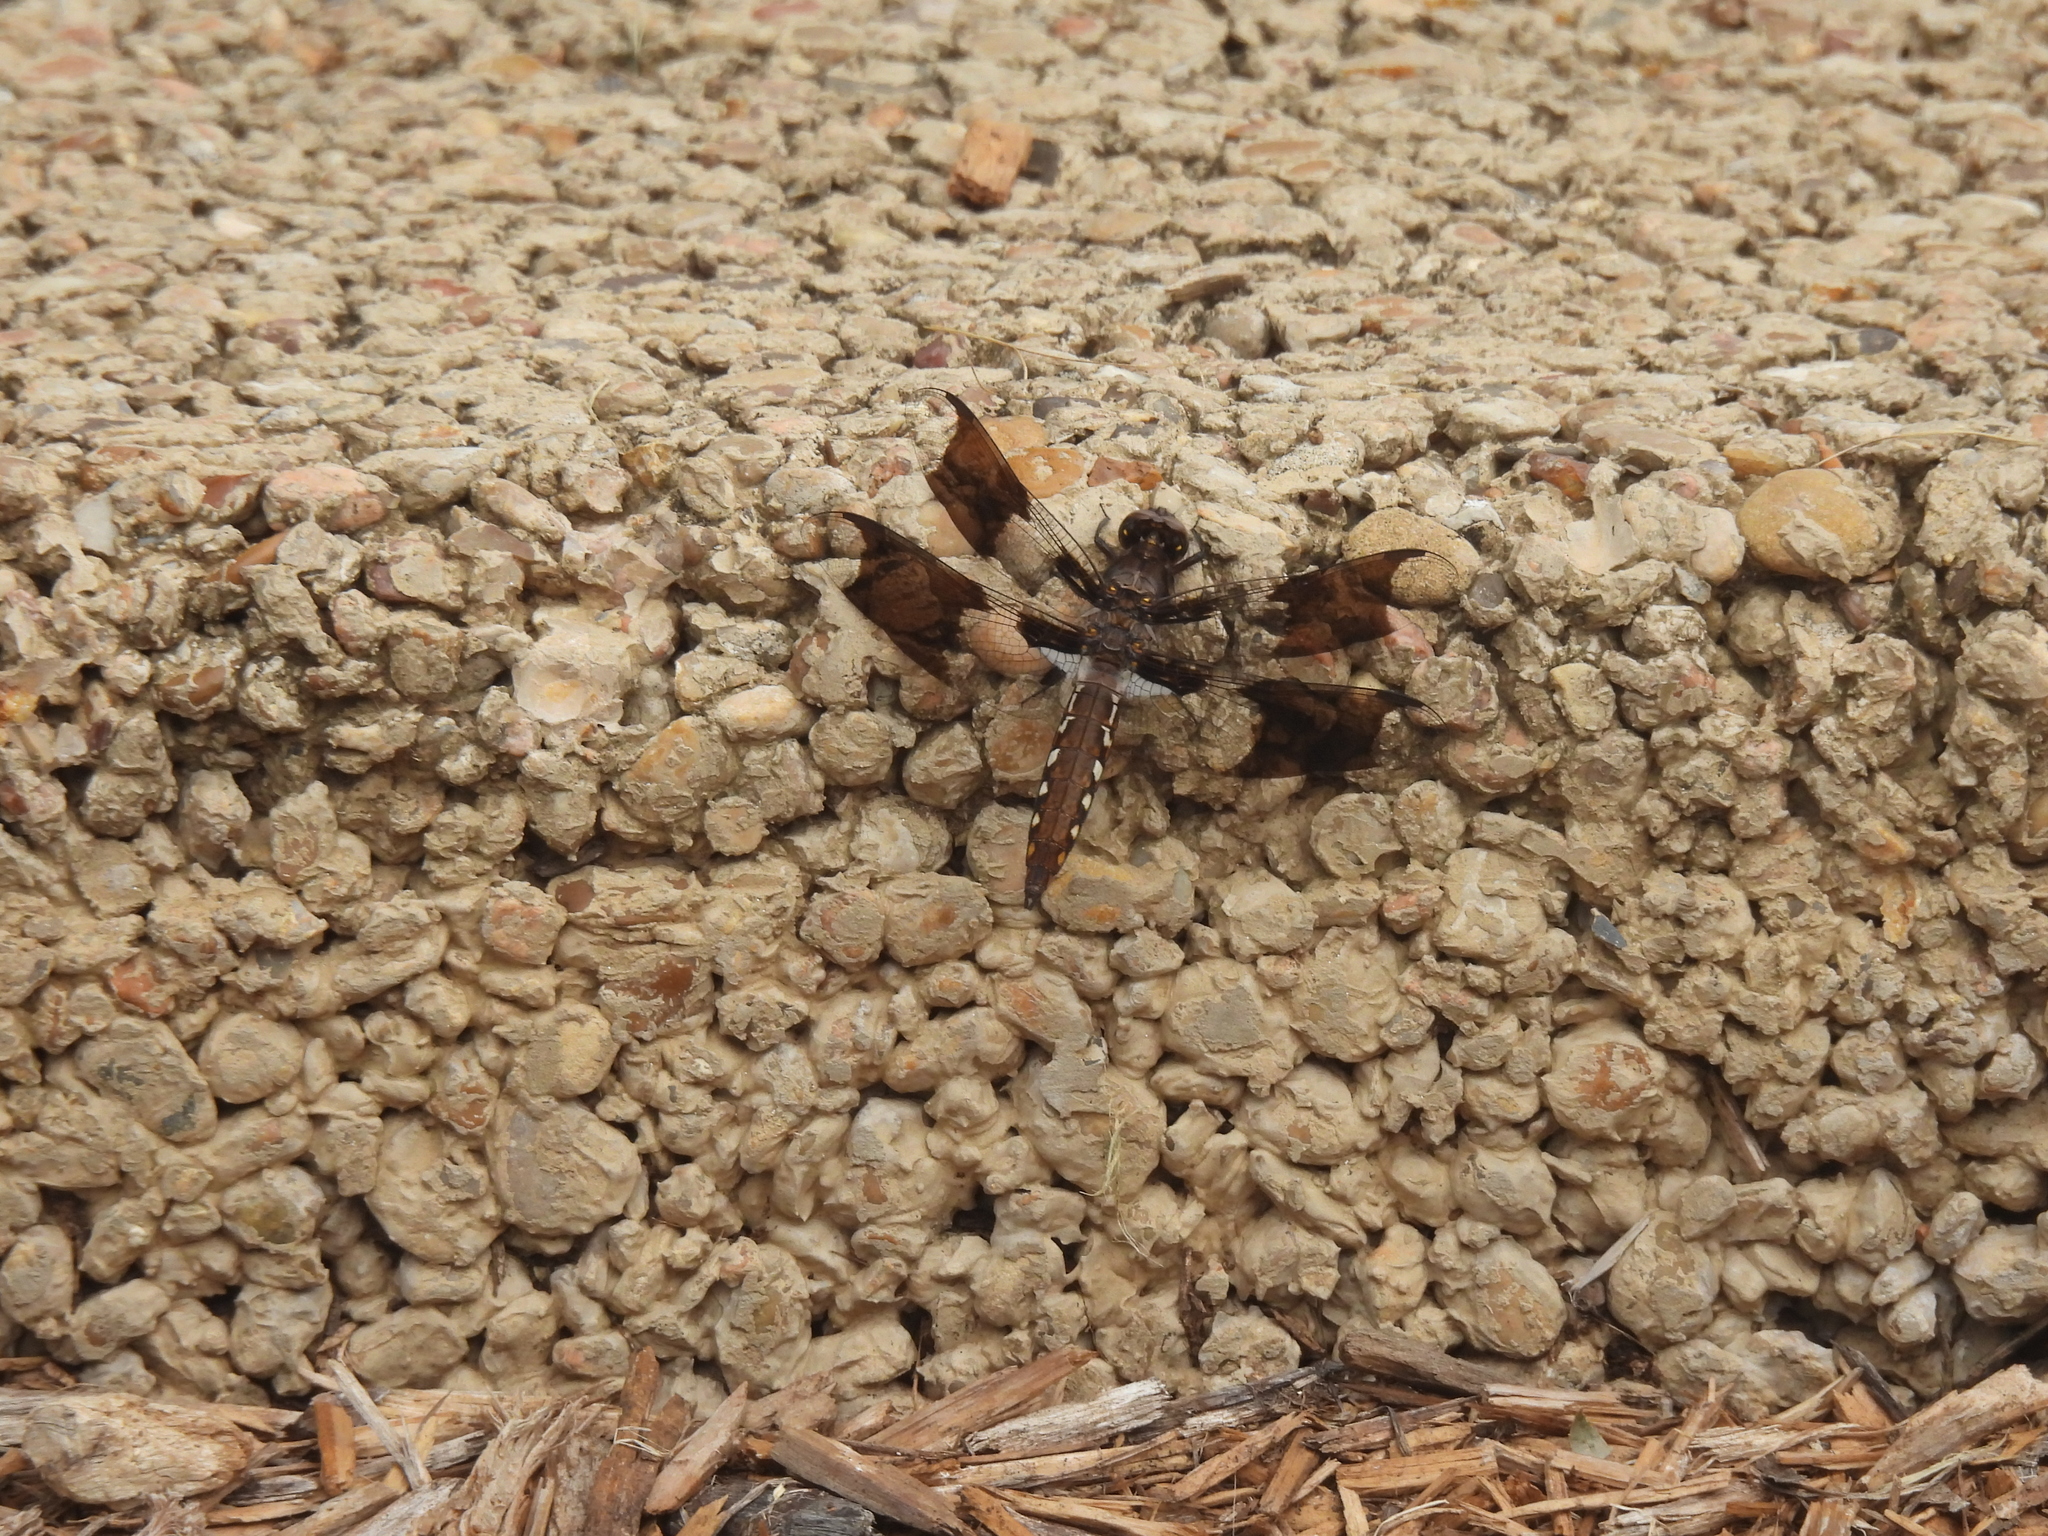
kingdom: Animalia
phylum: Arthropoda
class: Insecta
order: Odonata
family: Libellulidae
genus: Plathemis
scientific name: Plathemis lydia
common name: Common whitetail
